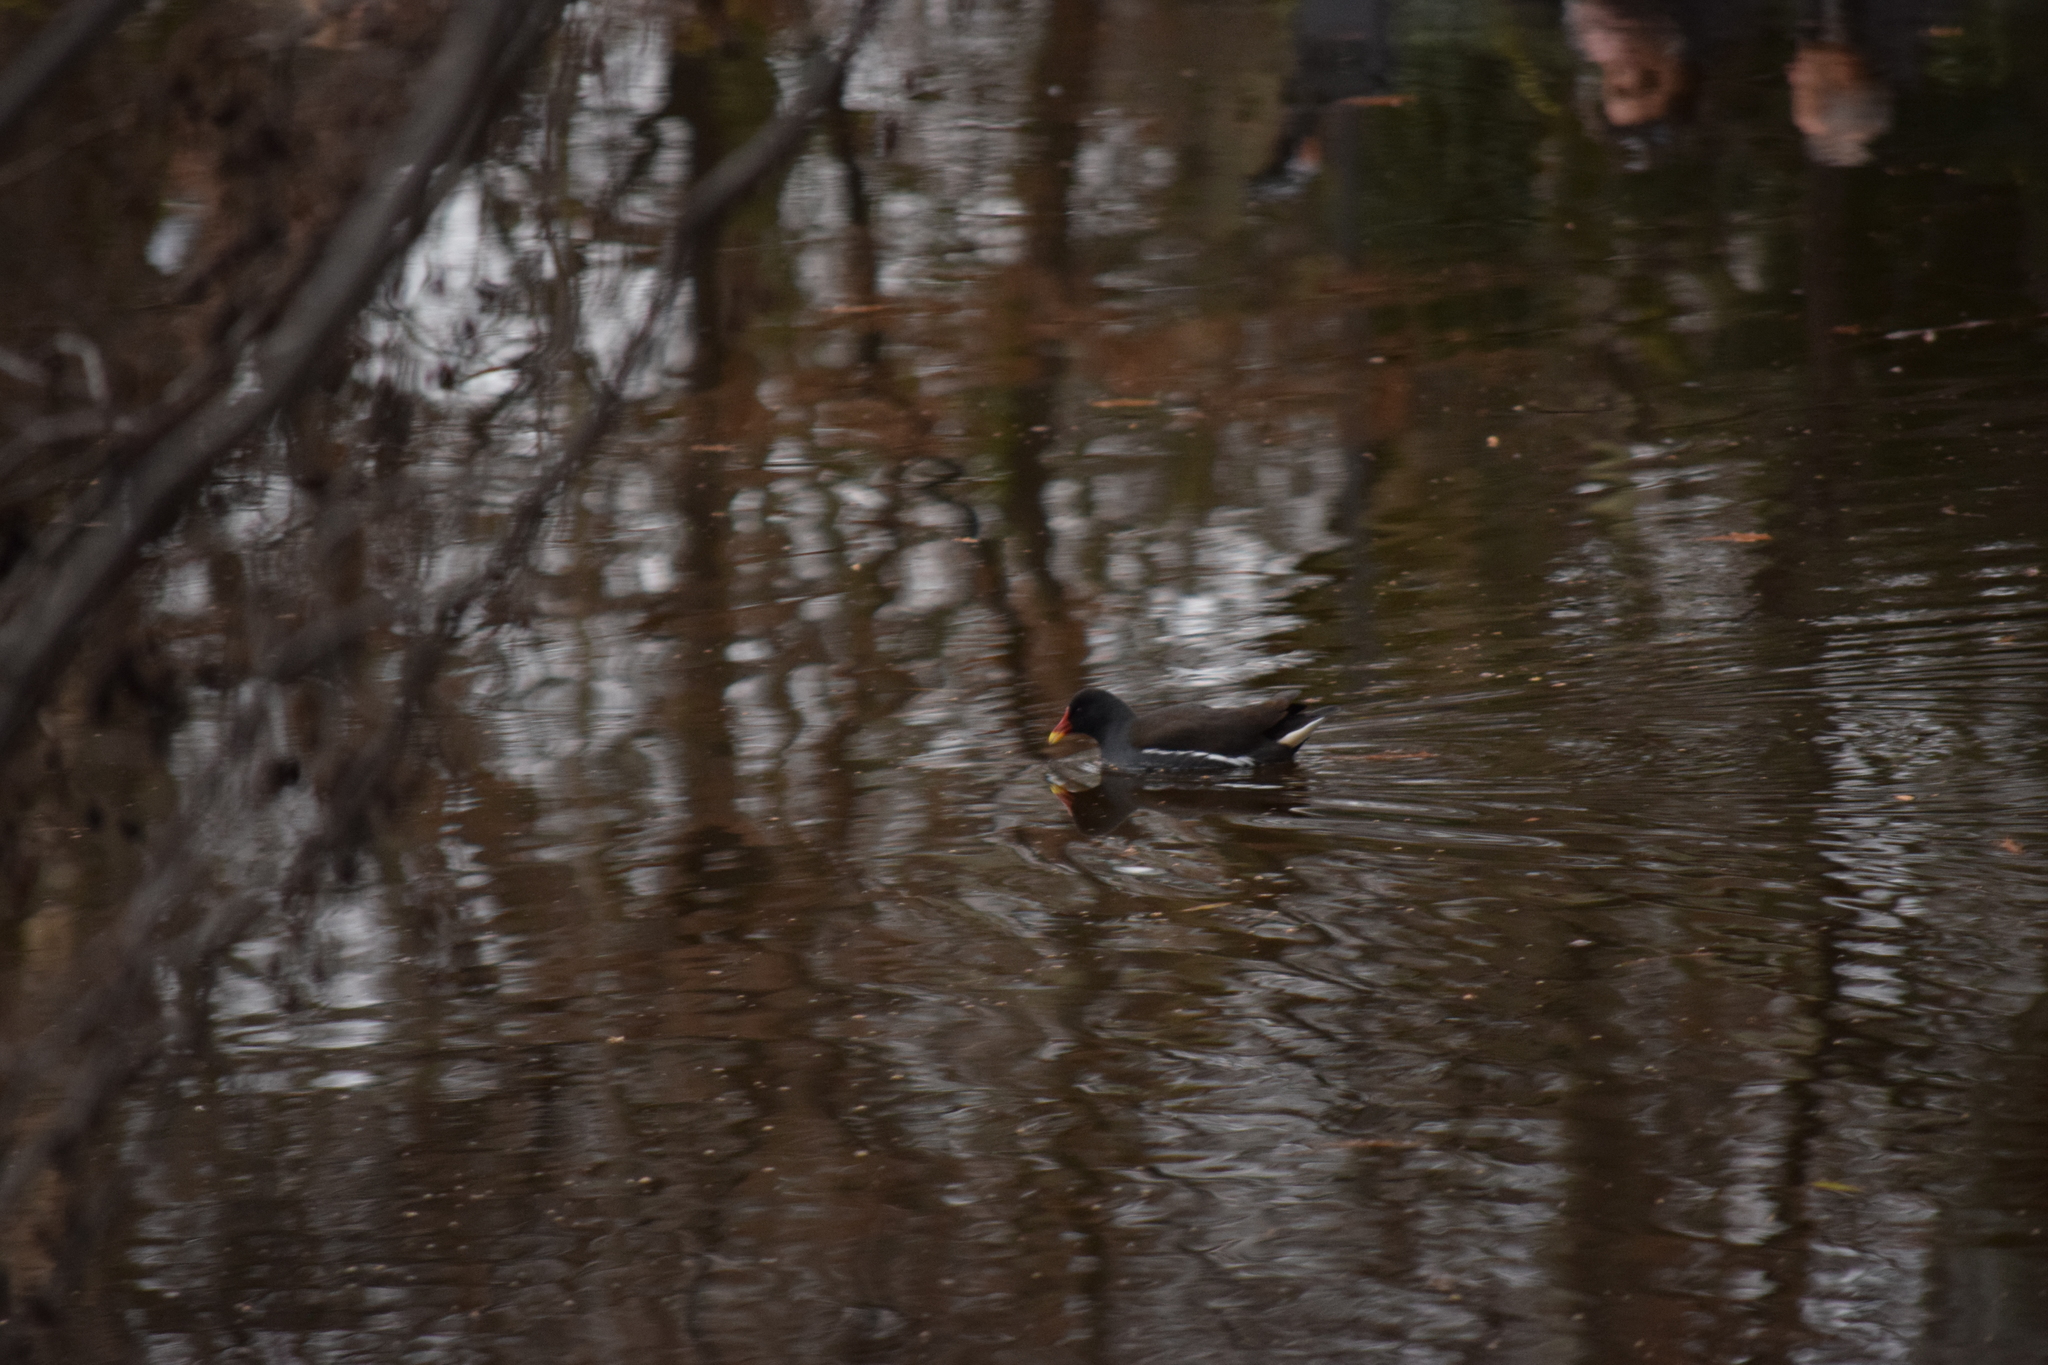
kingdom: Animalia
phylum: Chordata
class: Aves
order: Gruiformes
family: Rallidae
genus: Gallinula
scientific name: Gallinula chloropus
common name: Common moorhen
